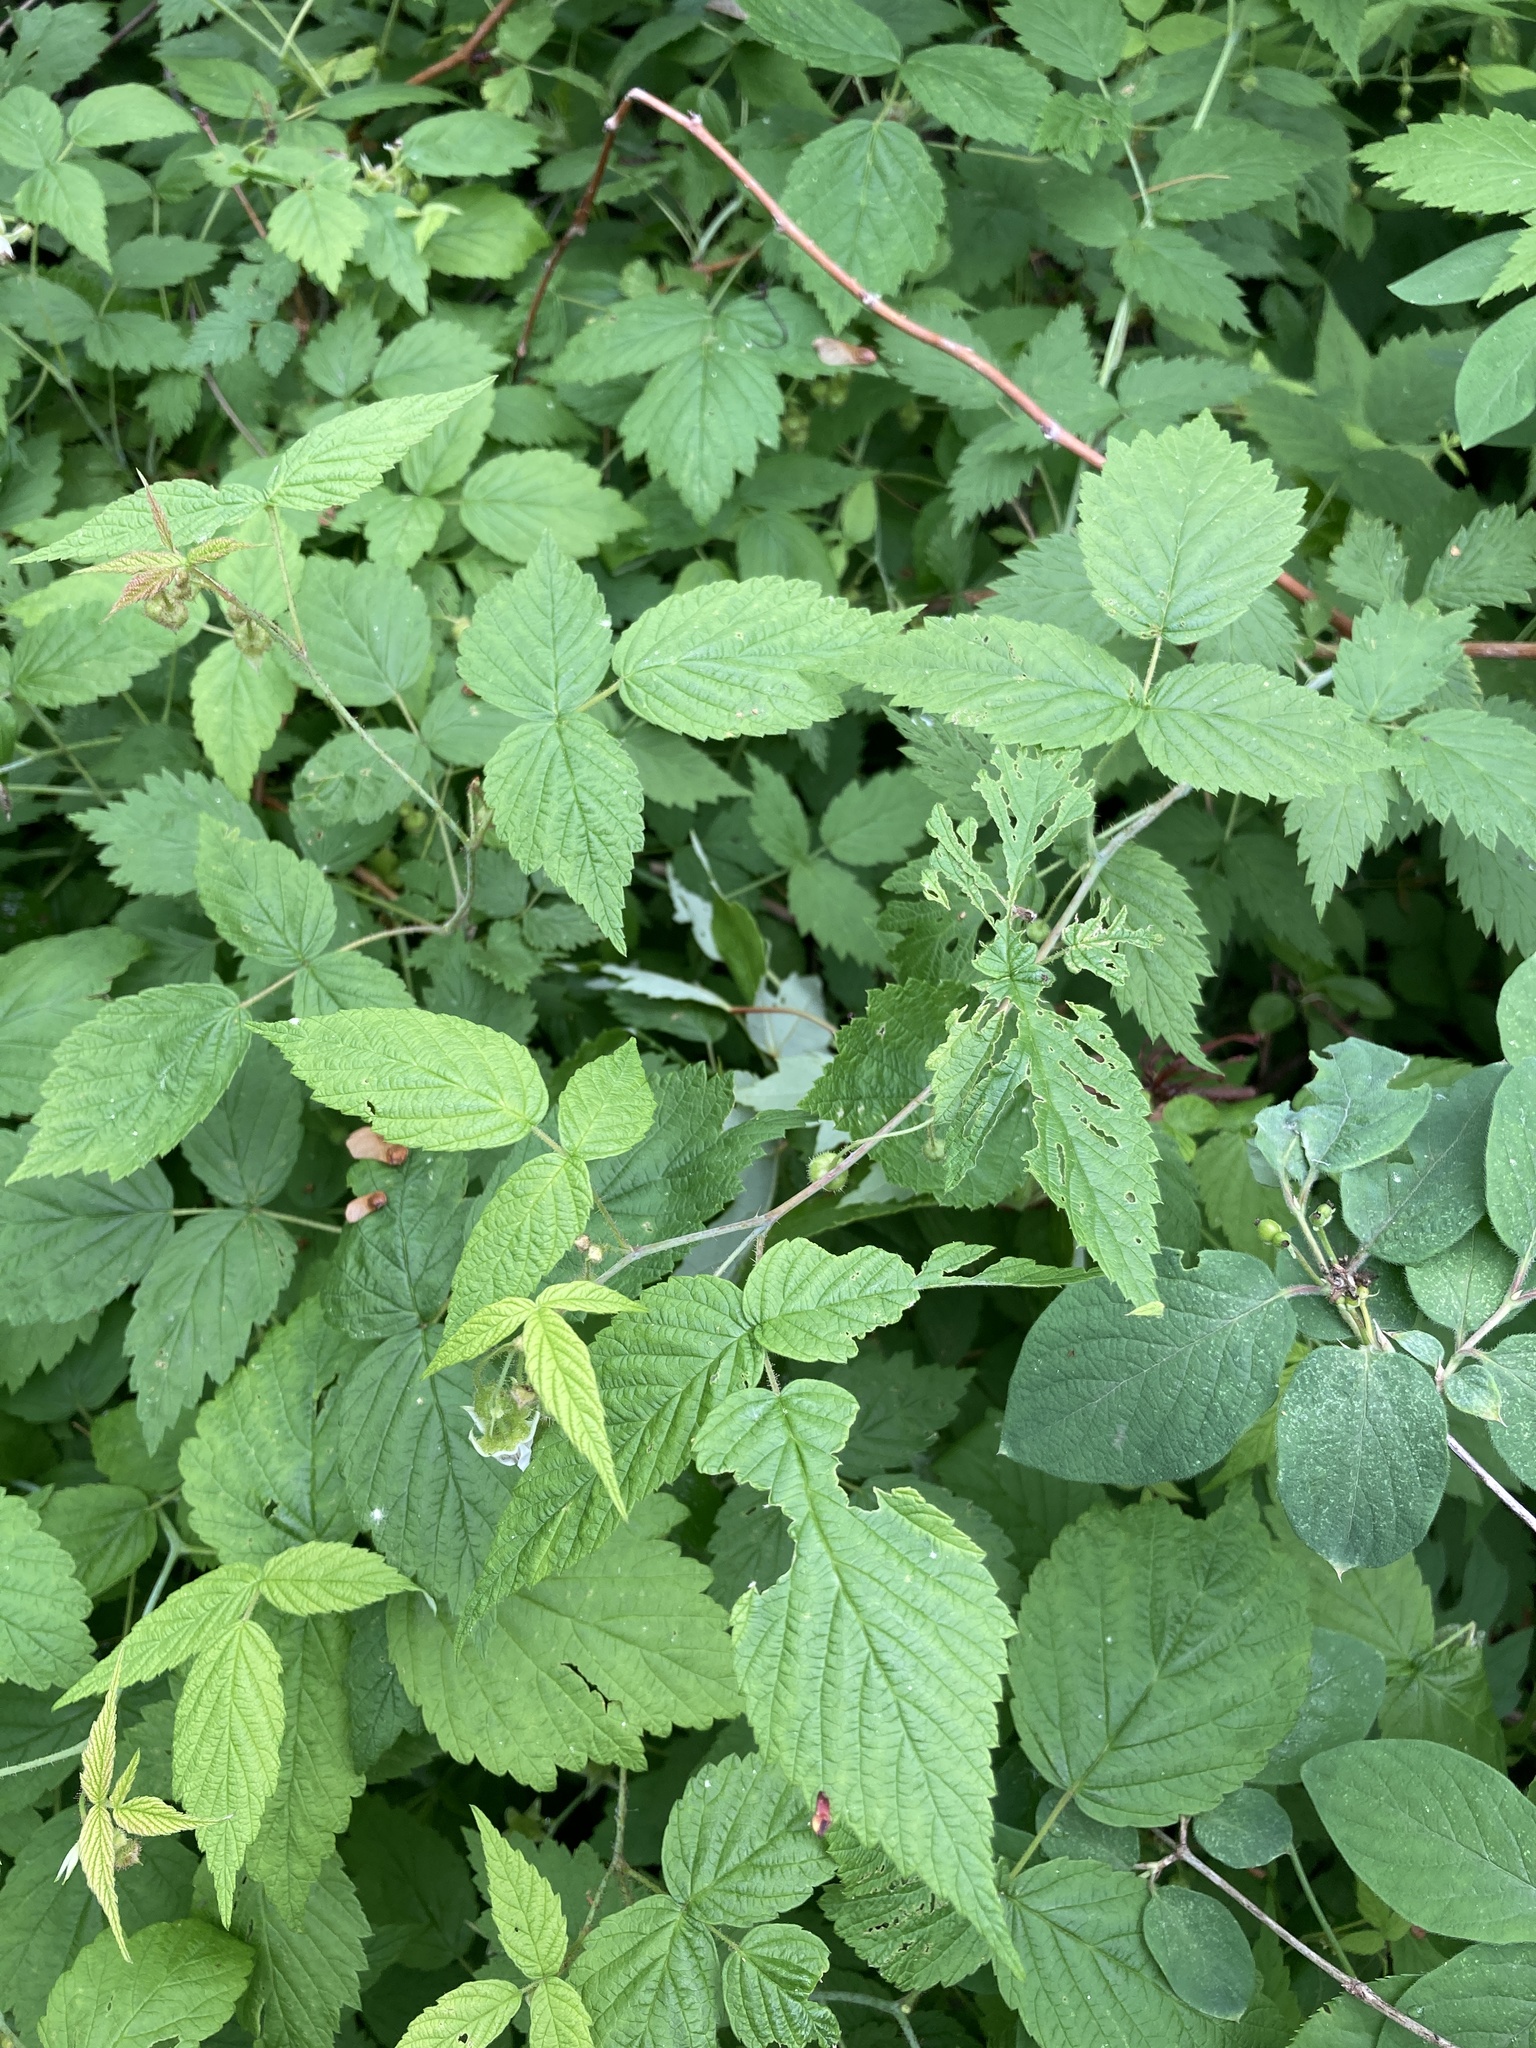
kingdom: Plantae
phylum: Tracheophyta
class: Magnoliopsida
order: Rosales
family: Rosaceae
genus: Rubus
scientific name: Rubus idaeus
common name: Raspberry
